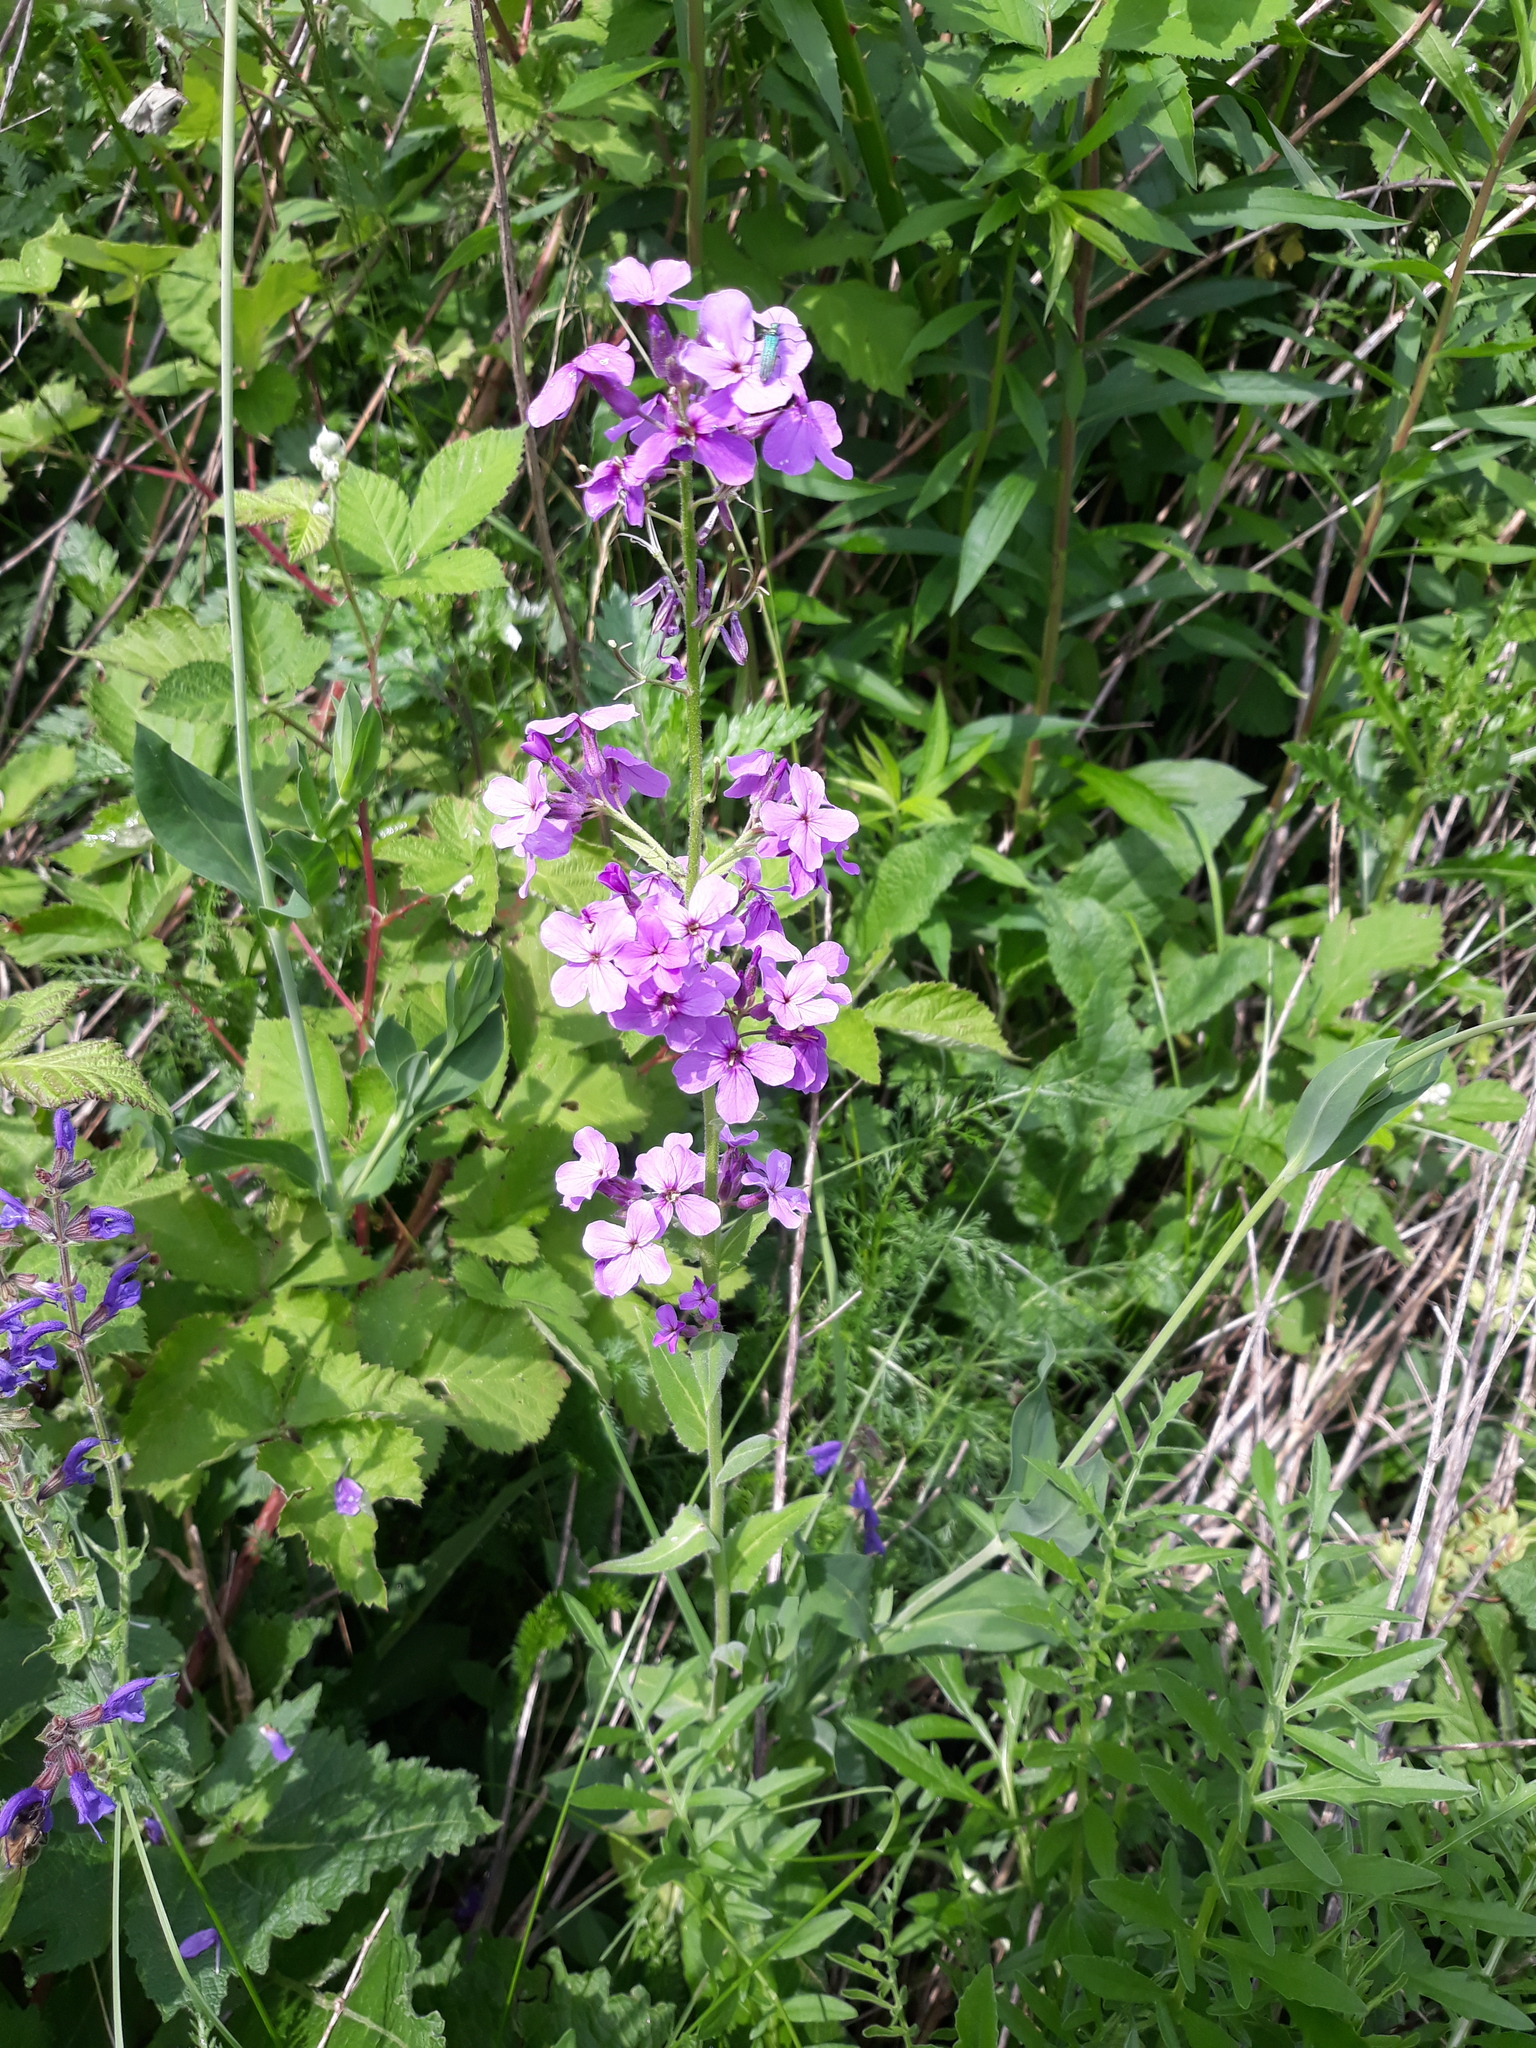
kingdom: Plantae
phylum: Tracheophyta
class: Magnoliopsida
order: Brassicales
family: Brassicaceae
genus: Hesperis
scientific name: Hesperis matronalis
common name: Dame's-violet
